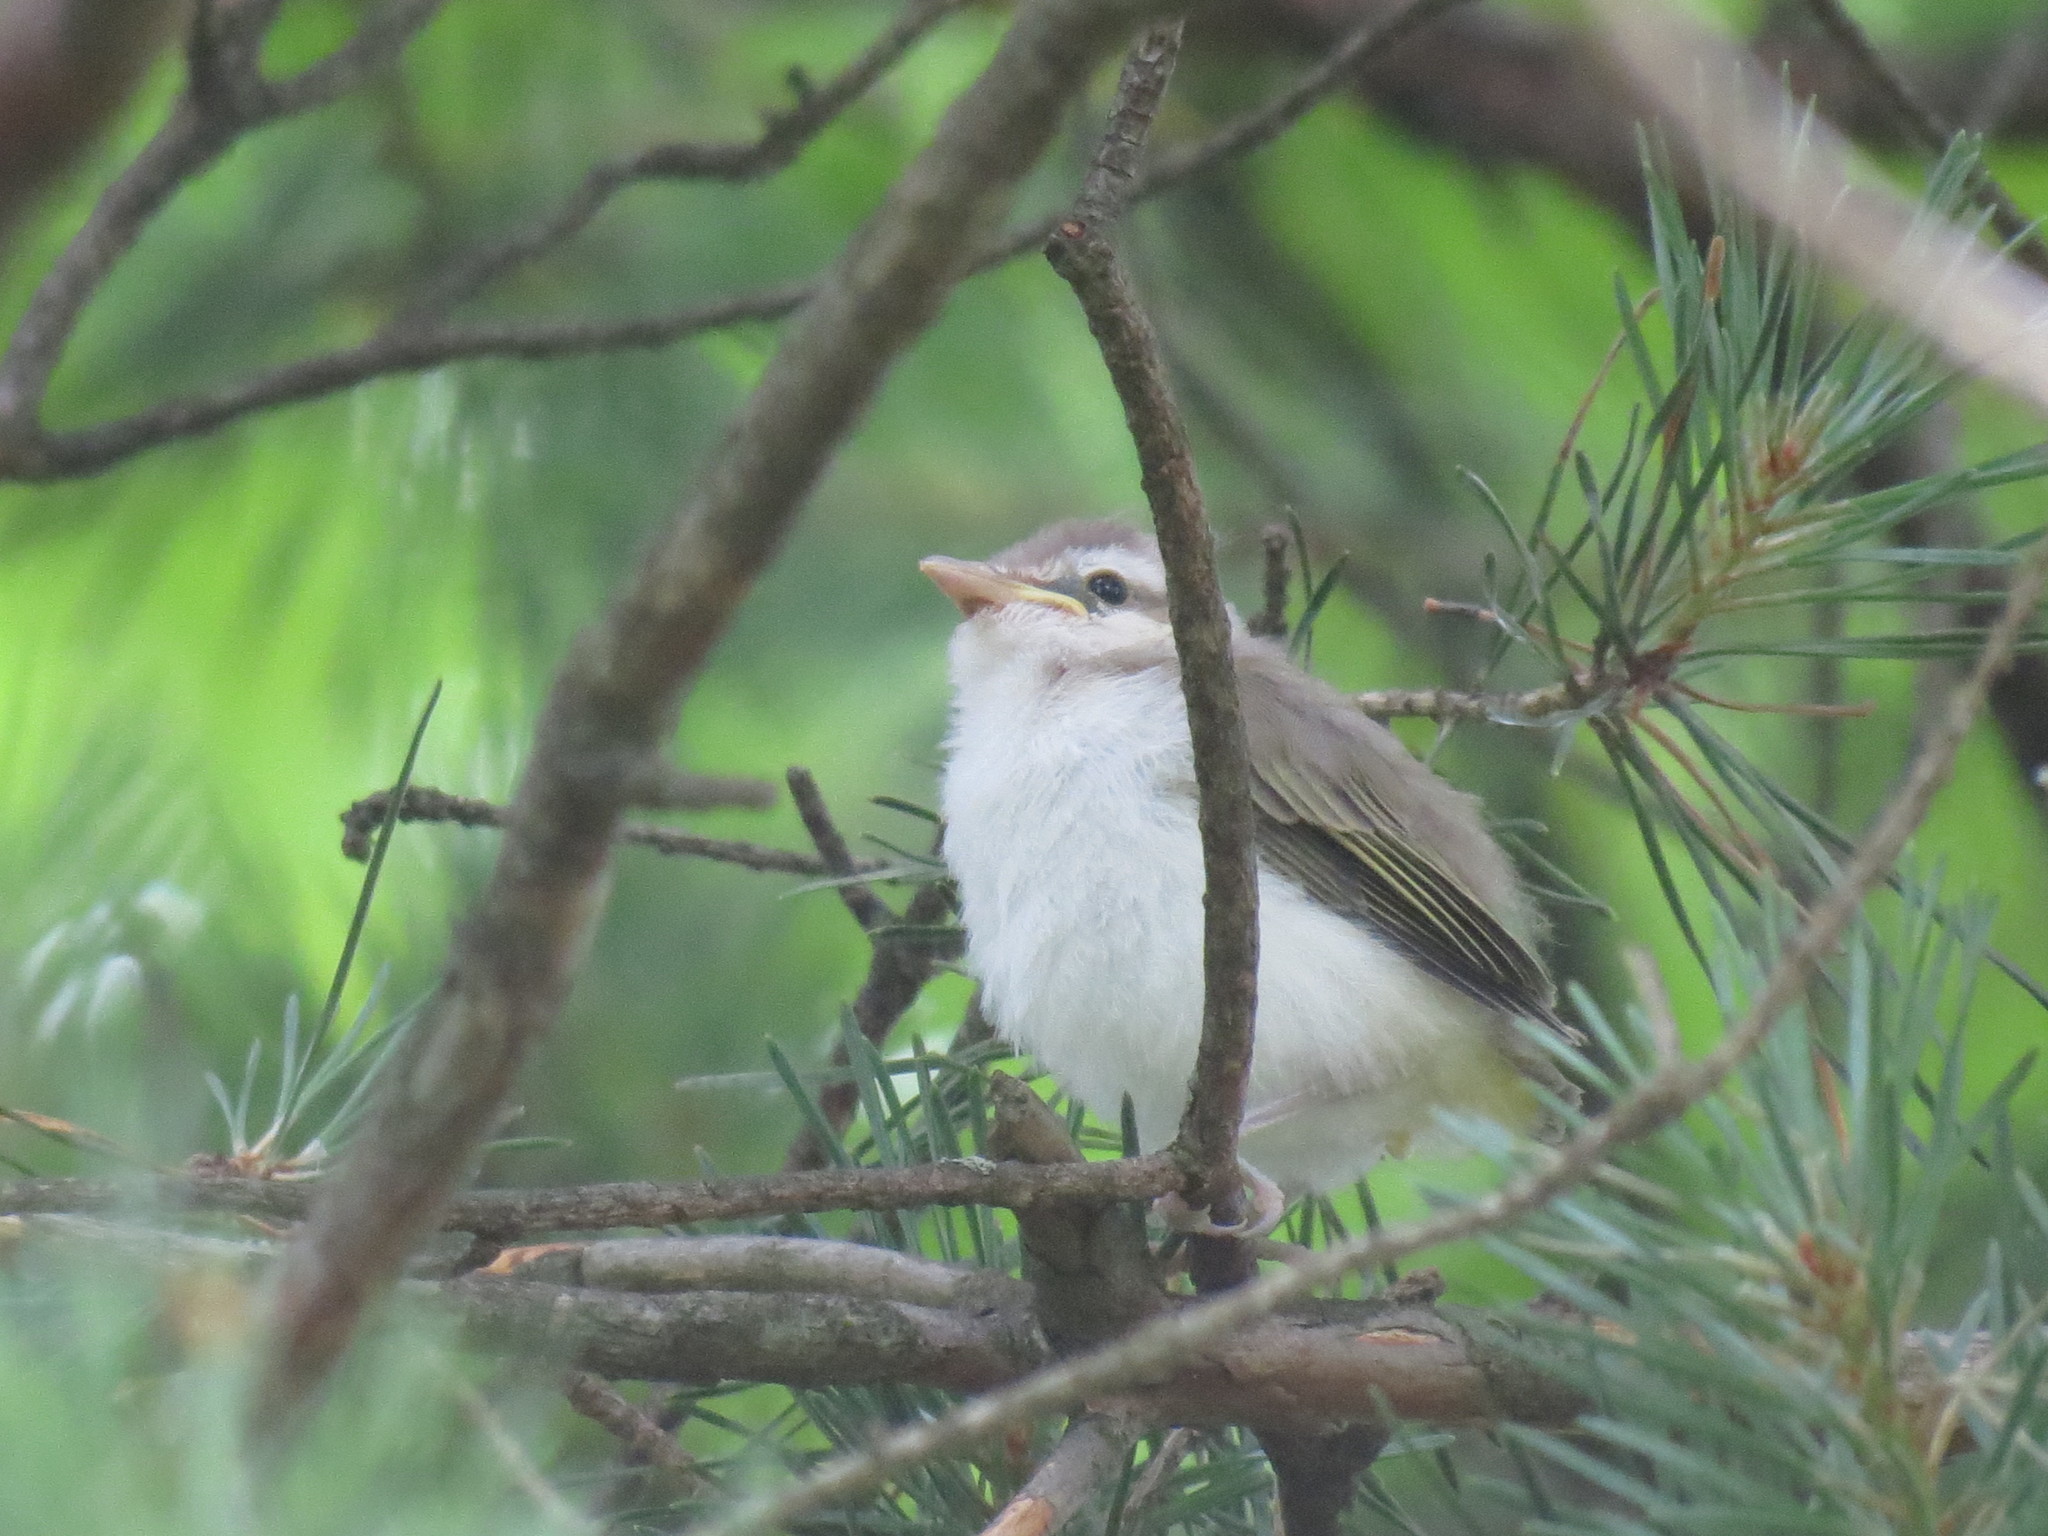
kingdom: Animalia
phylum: Chordata
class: Aves
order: Passeriformes
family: Vireonidae
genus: Vireo
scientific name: Vireo olivaceus
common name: Red-eyed vireo
